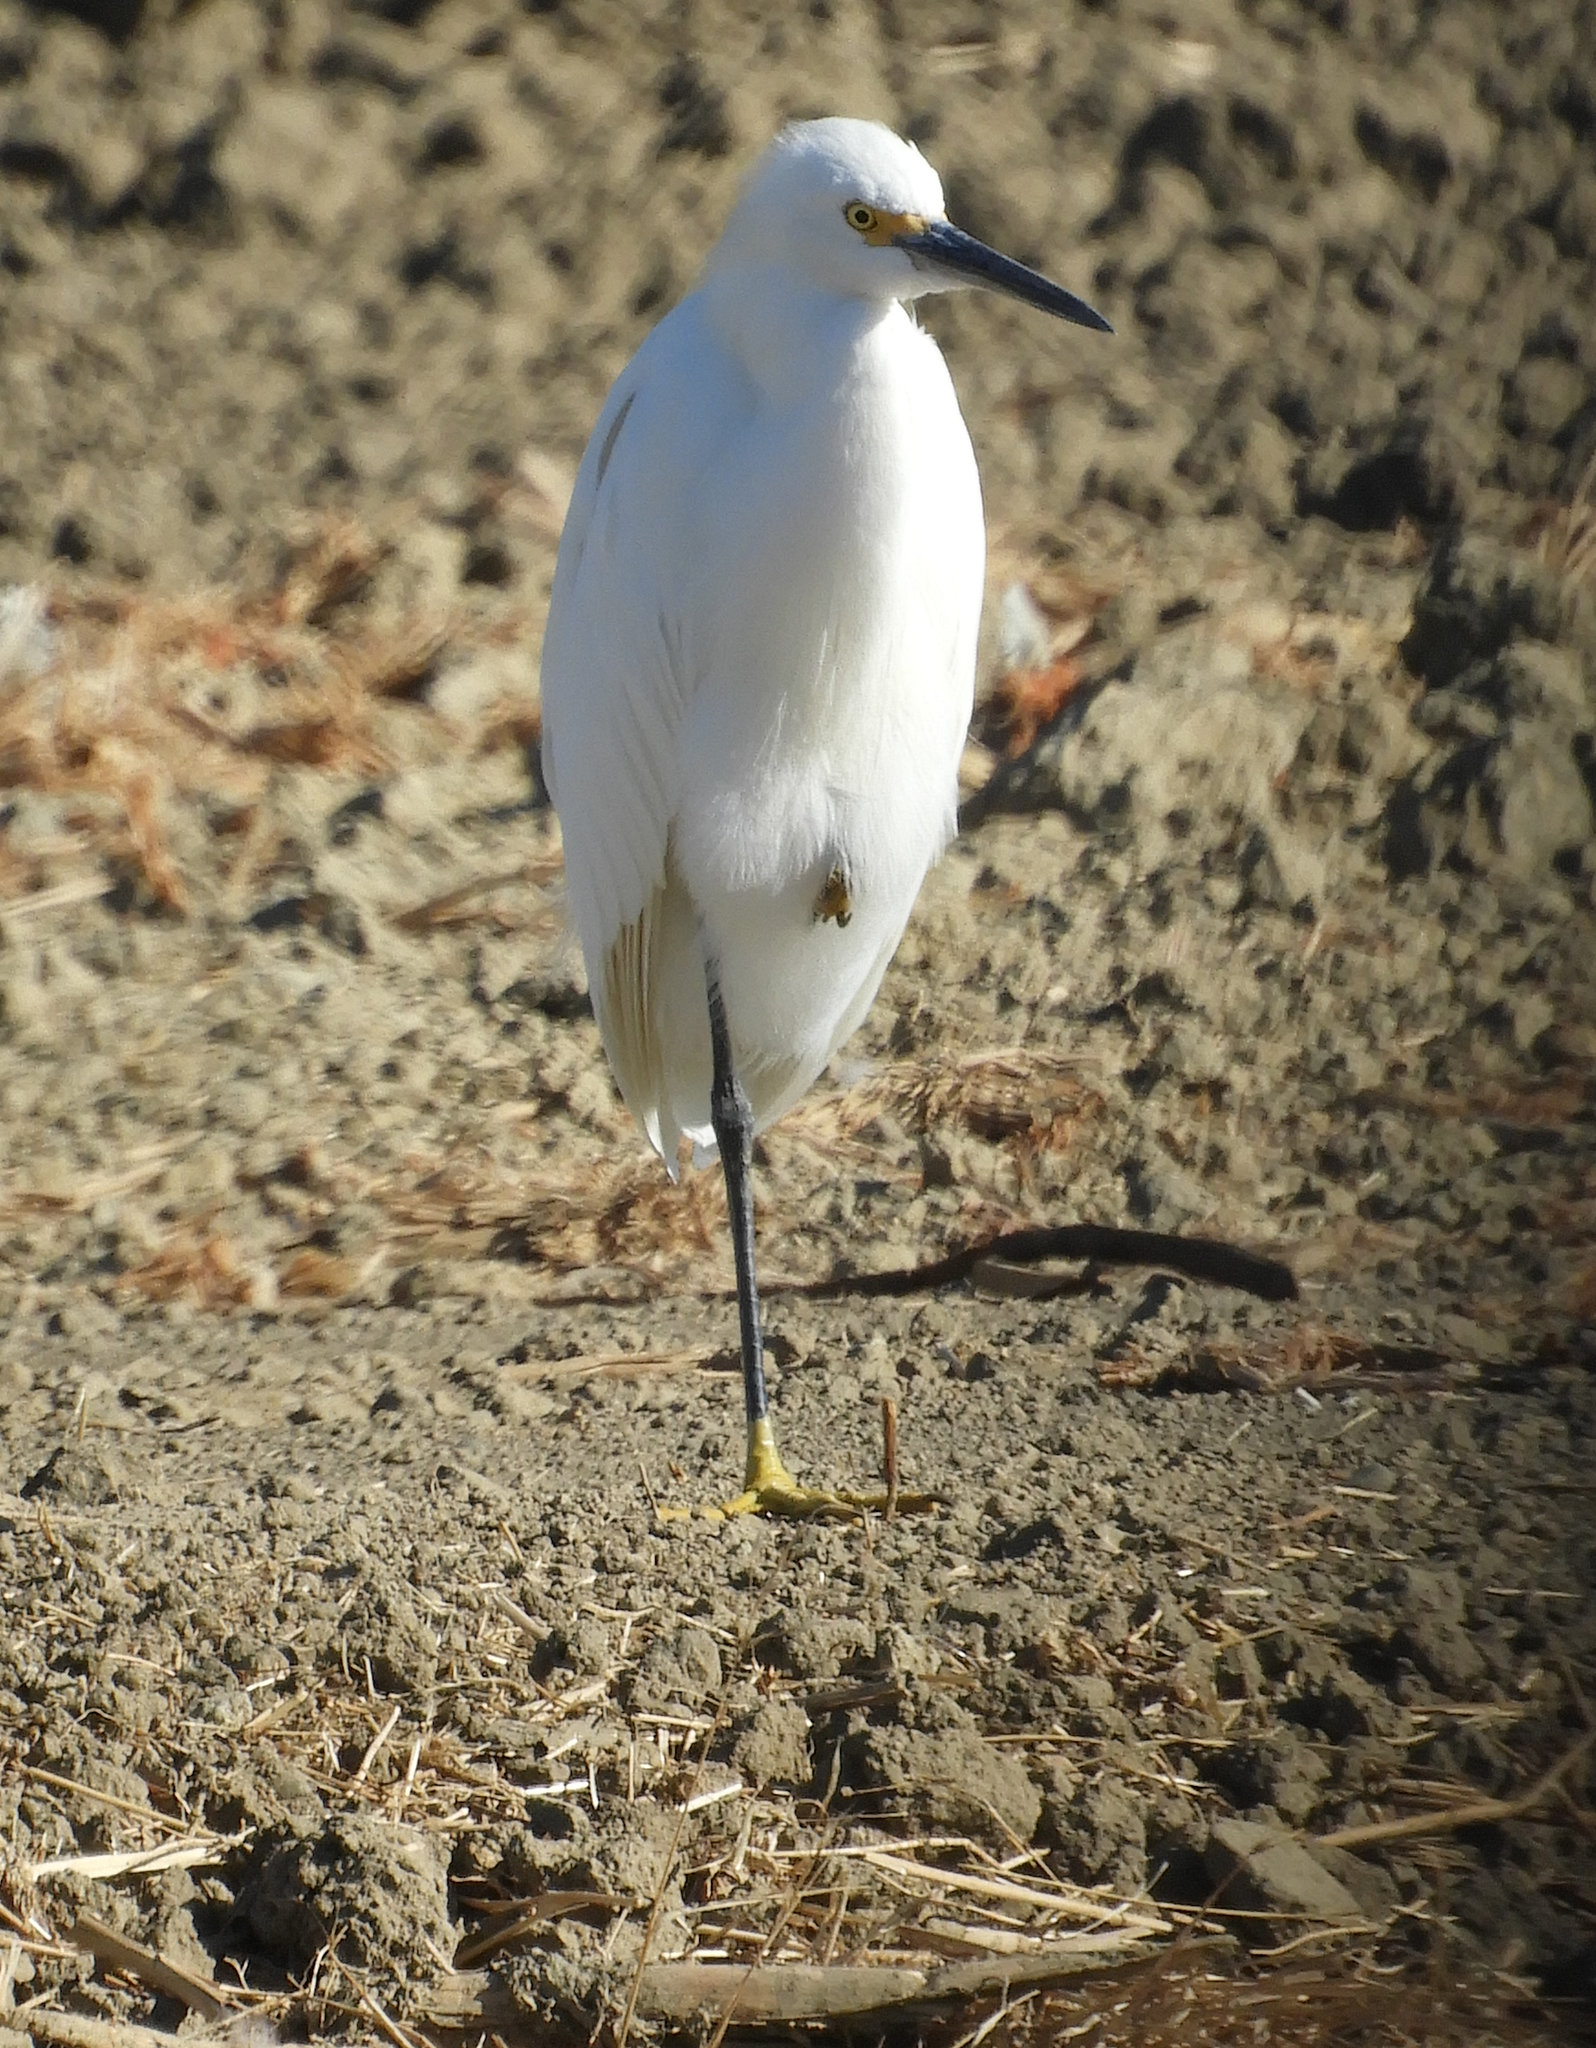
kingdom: Animalia
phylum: Chordata
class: Aves
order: Pelecaniformes
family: Ardeidae
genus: Egretta
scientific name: Egretta thula
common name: Snowy egret
